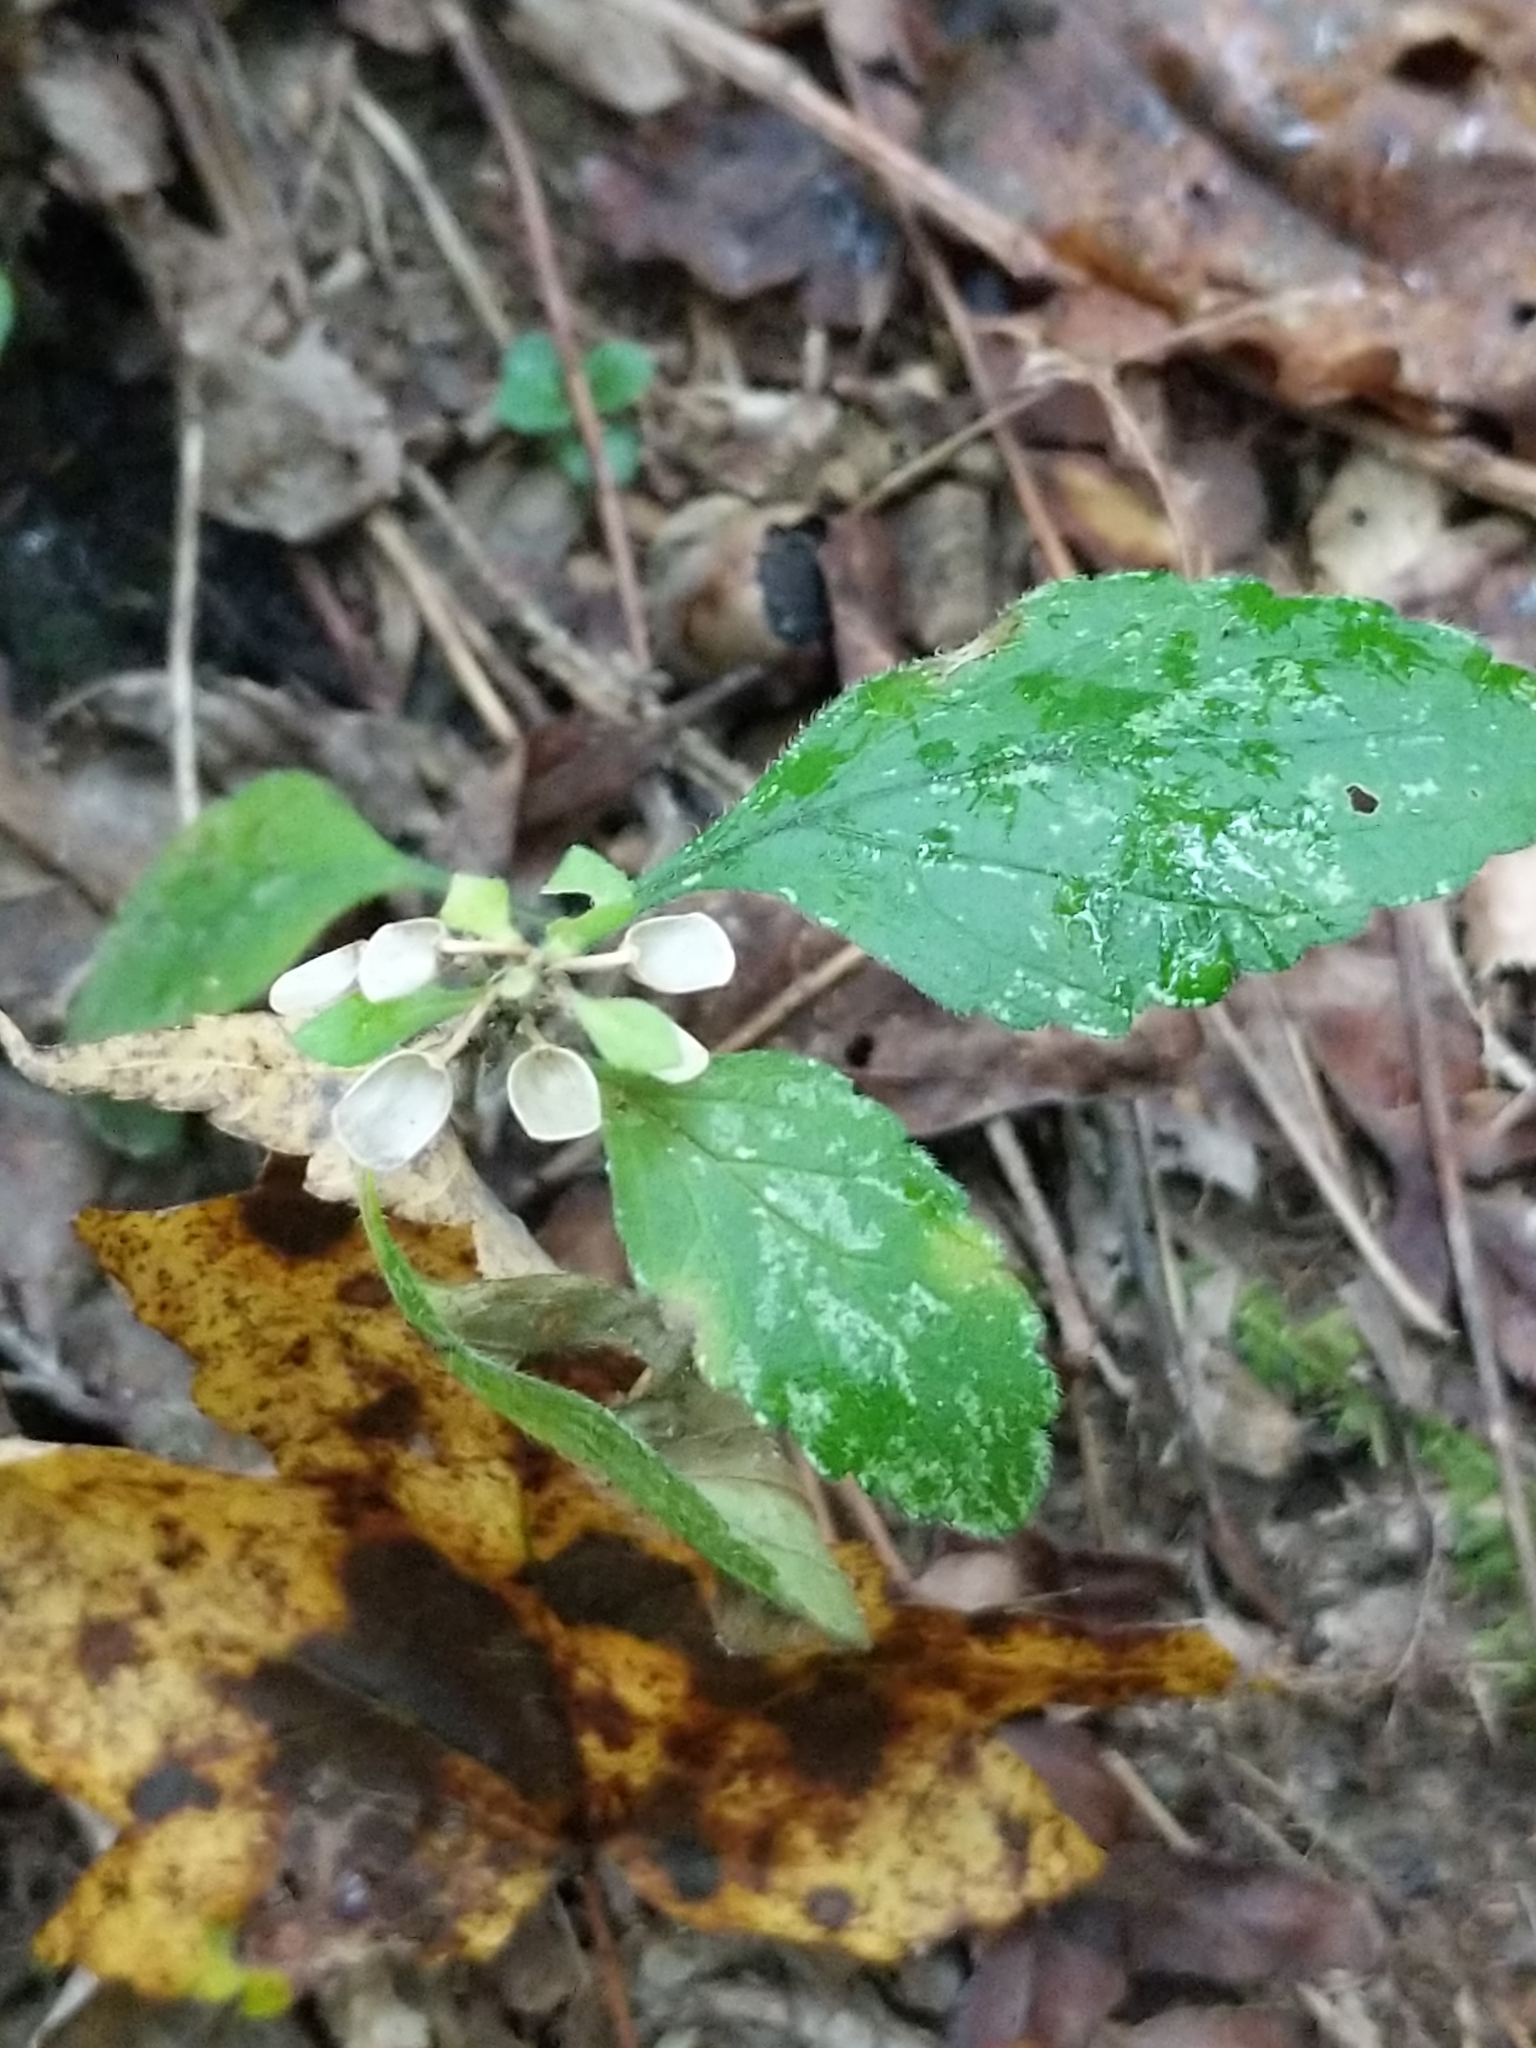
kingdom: Plantae
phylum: Tracheophyta
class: Magnoliopsida
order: Lamiales
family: Lamiaceae
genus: Scutellaria
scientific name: Scutellaria elliptica
